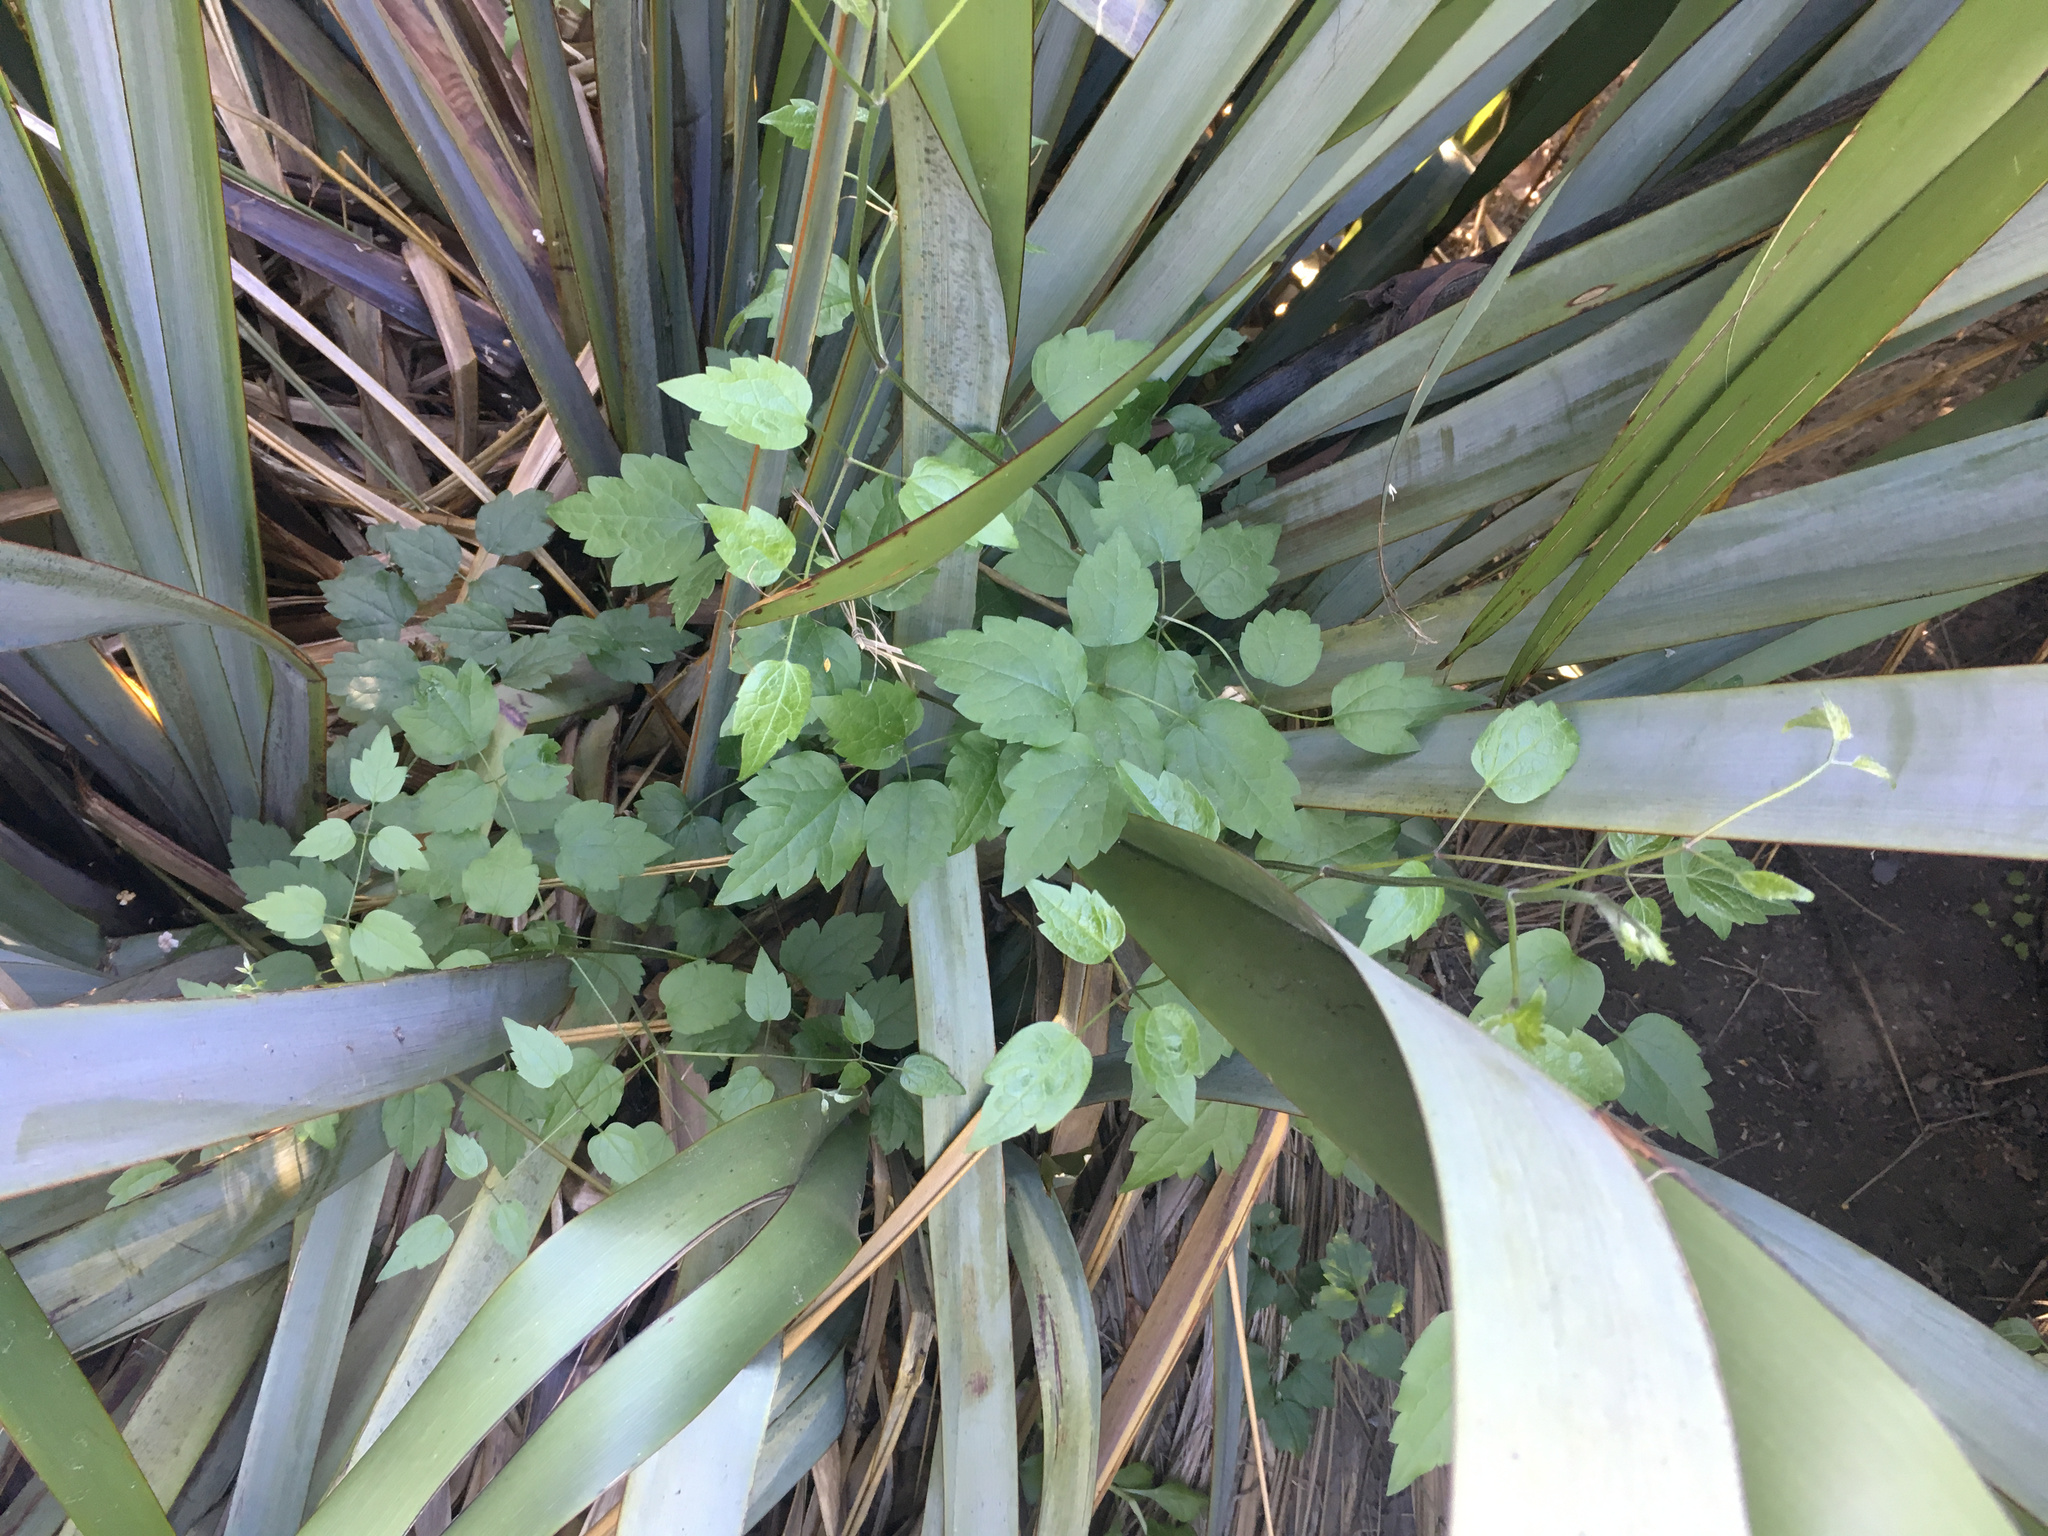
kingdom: Plantae
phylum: Tracheophyta
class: Magnoliopsida
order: Ranunculales
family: Ranunculaceae
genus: Clematis
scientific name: Clematis vitalba
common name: Evergreen clematis
